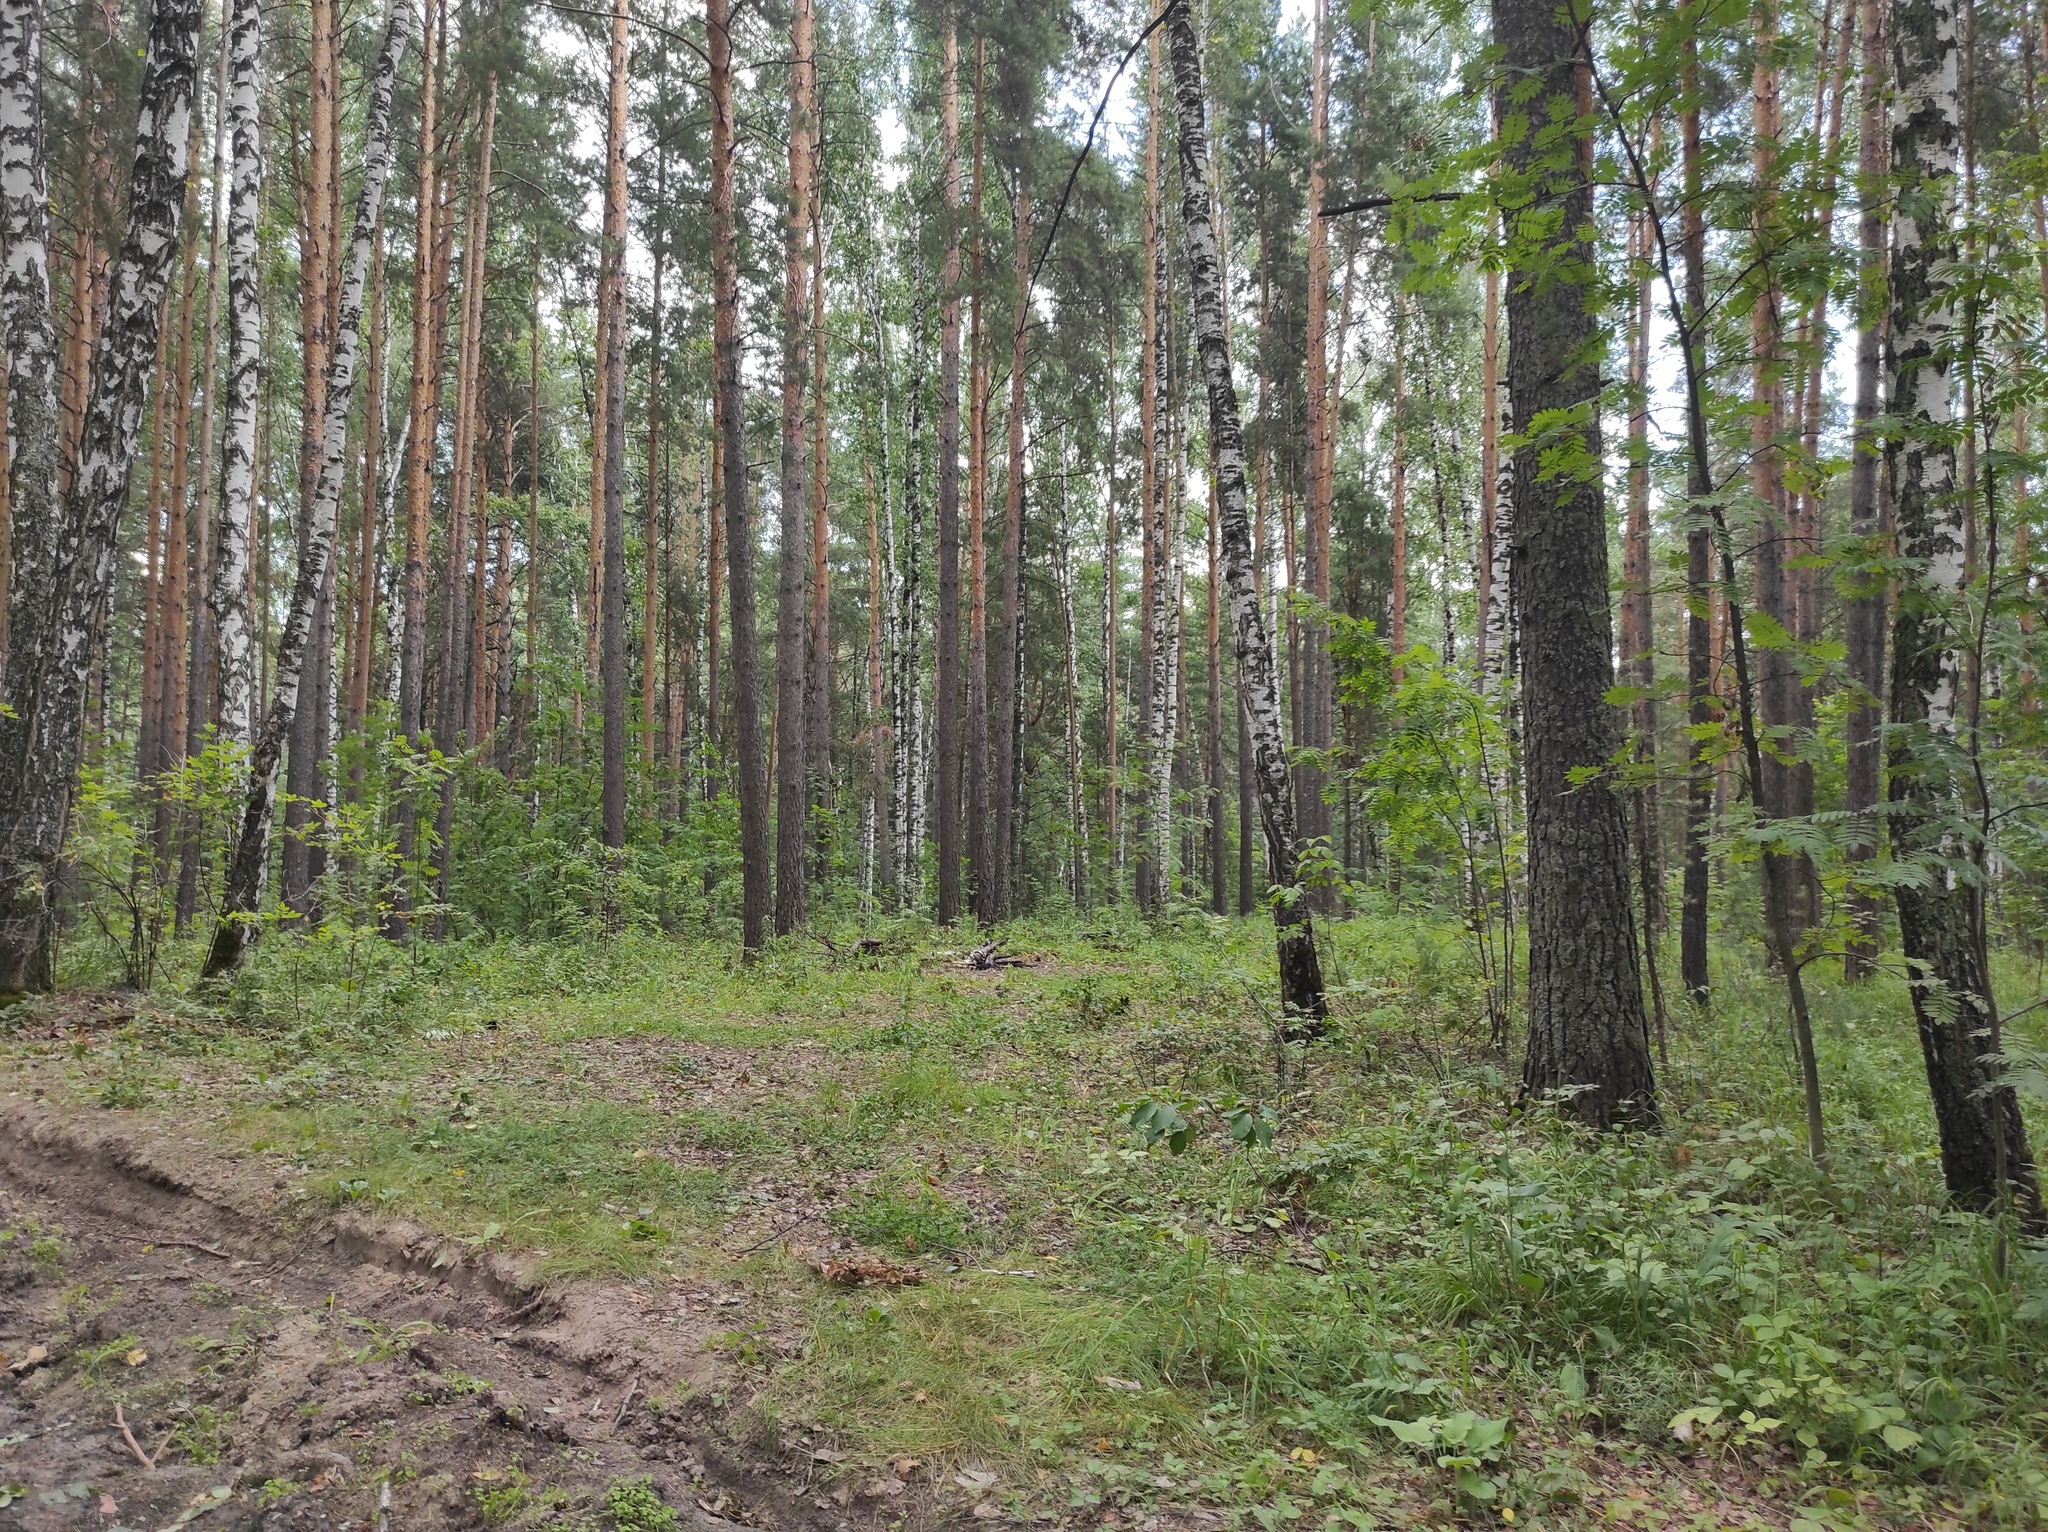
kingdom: Plantae
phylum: Tracheophyta
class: Magnoliopsida
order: Fagales
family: Betulaceae
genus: Betula
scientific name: Betula pendula
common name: Silver birch
